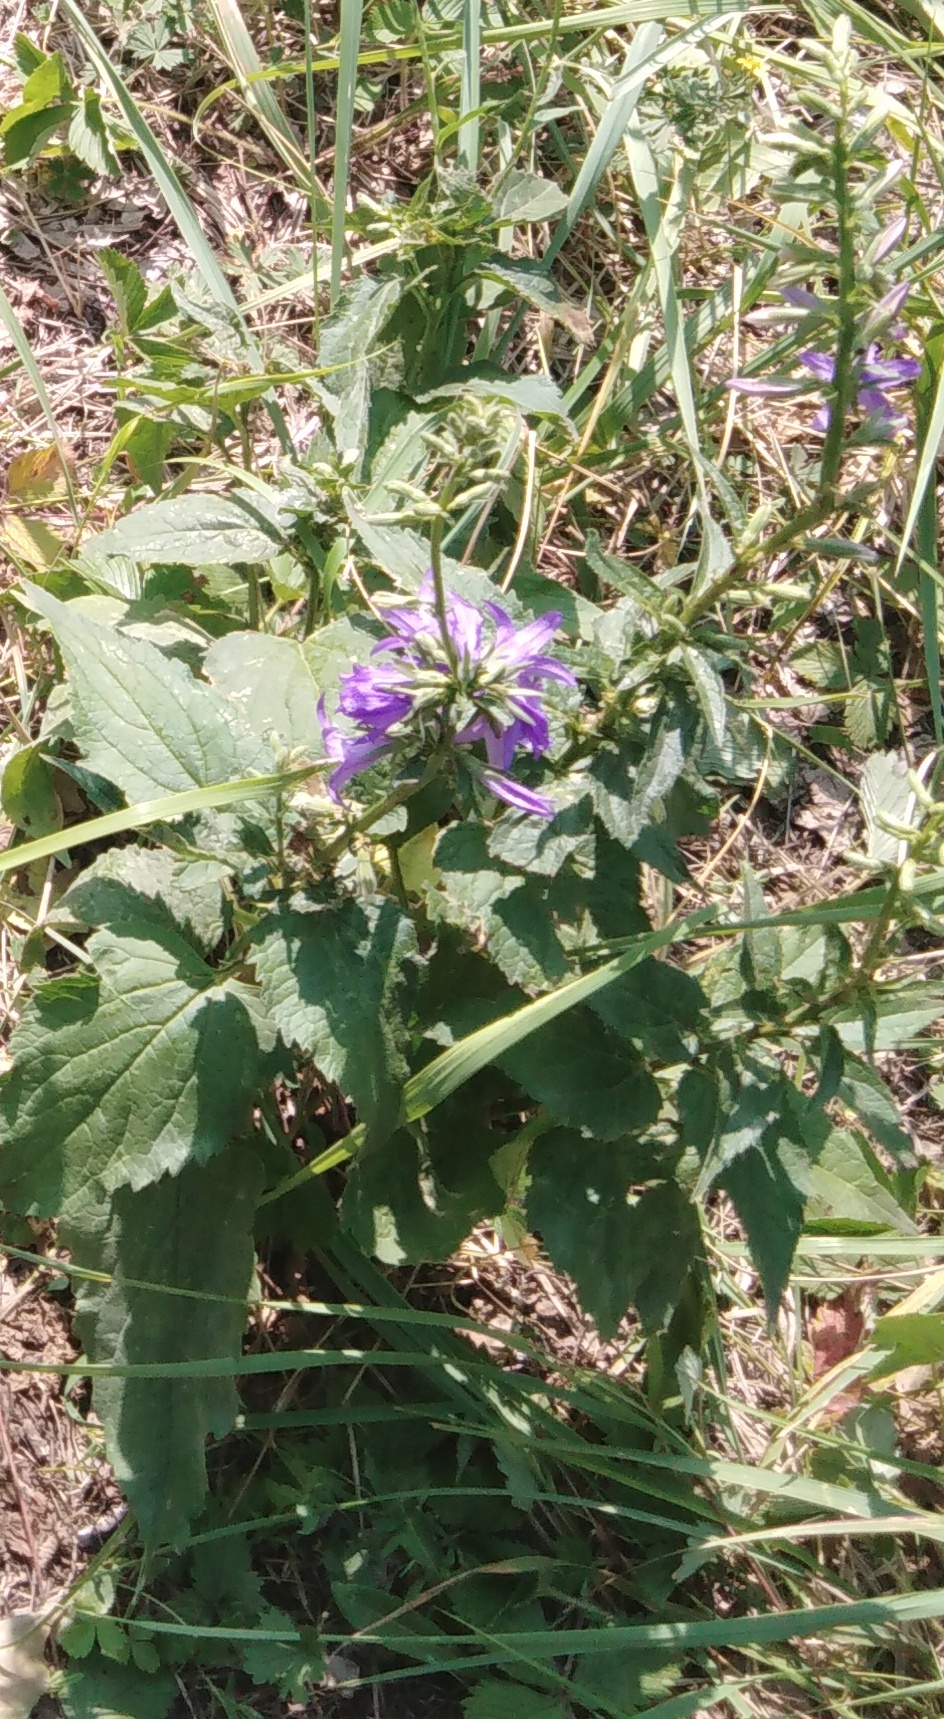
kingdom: Plantae
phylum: Tracheophyta
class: Magnoliopsida
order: Asterales
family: Campanulaceae
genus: Campanula
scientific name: Campanula trachelium
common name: Nettle-leaved bellflower
